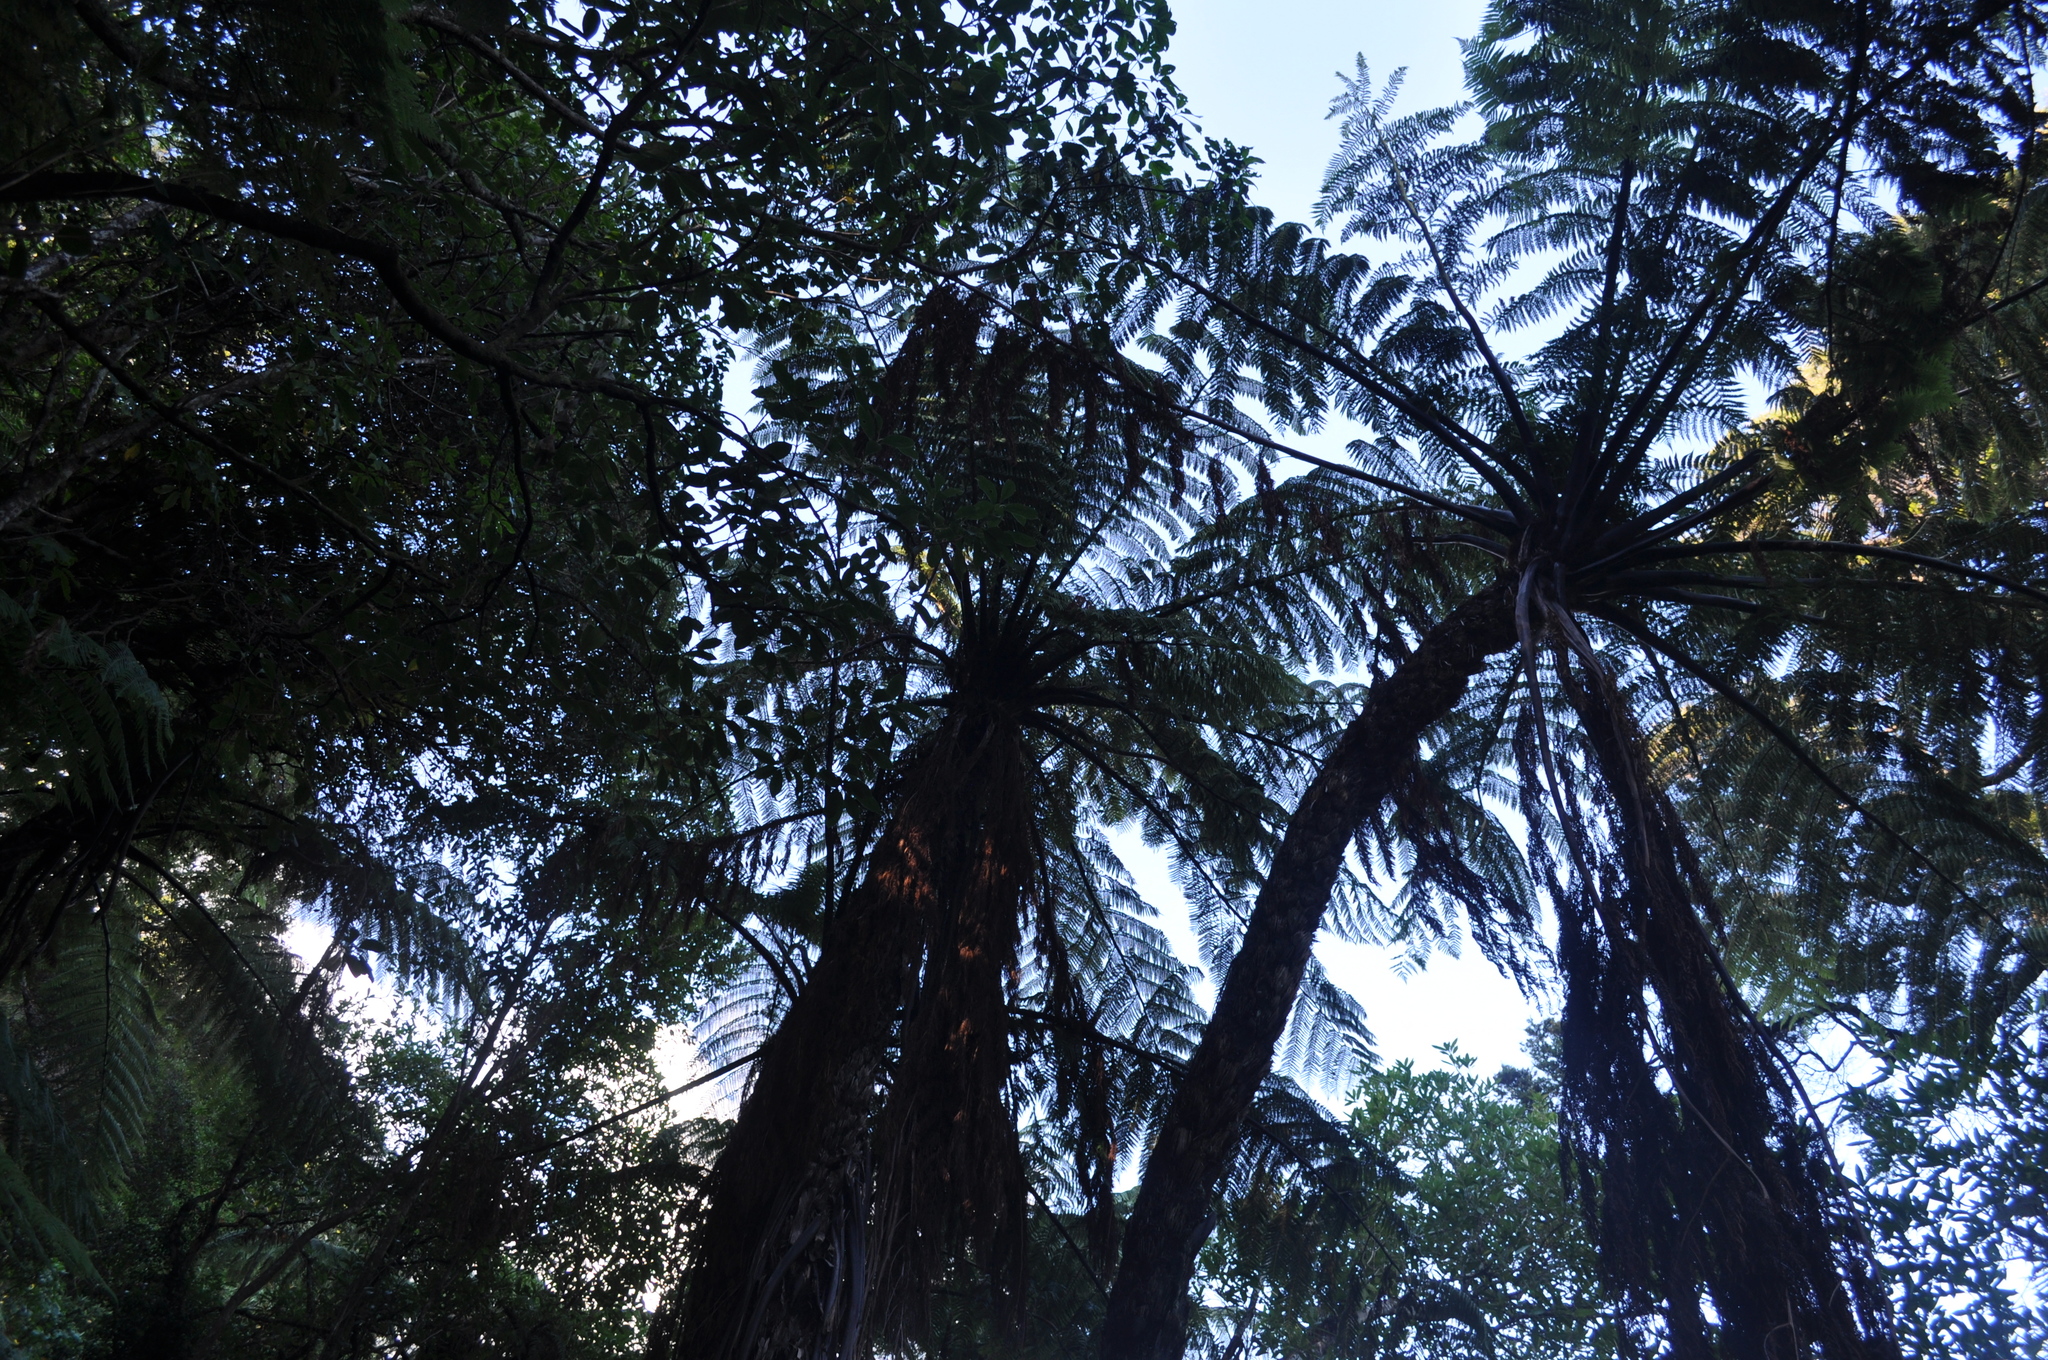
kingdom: Plantae
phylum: Tracheophyta
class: Polypodiopsida
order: Cyatheales
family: Cyatheaceae
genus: Sphaeropteris
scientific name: Sphaeropteris medullaris
